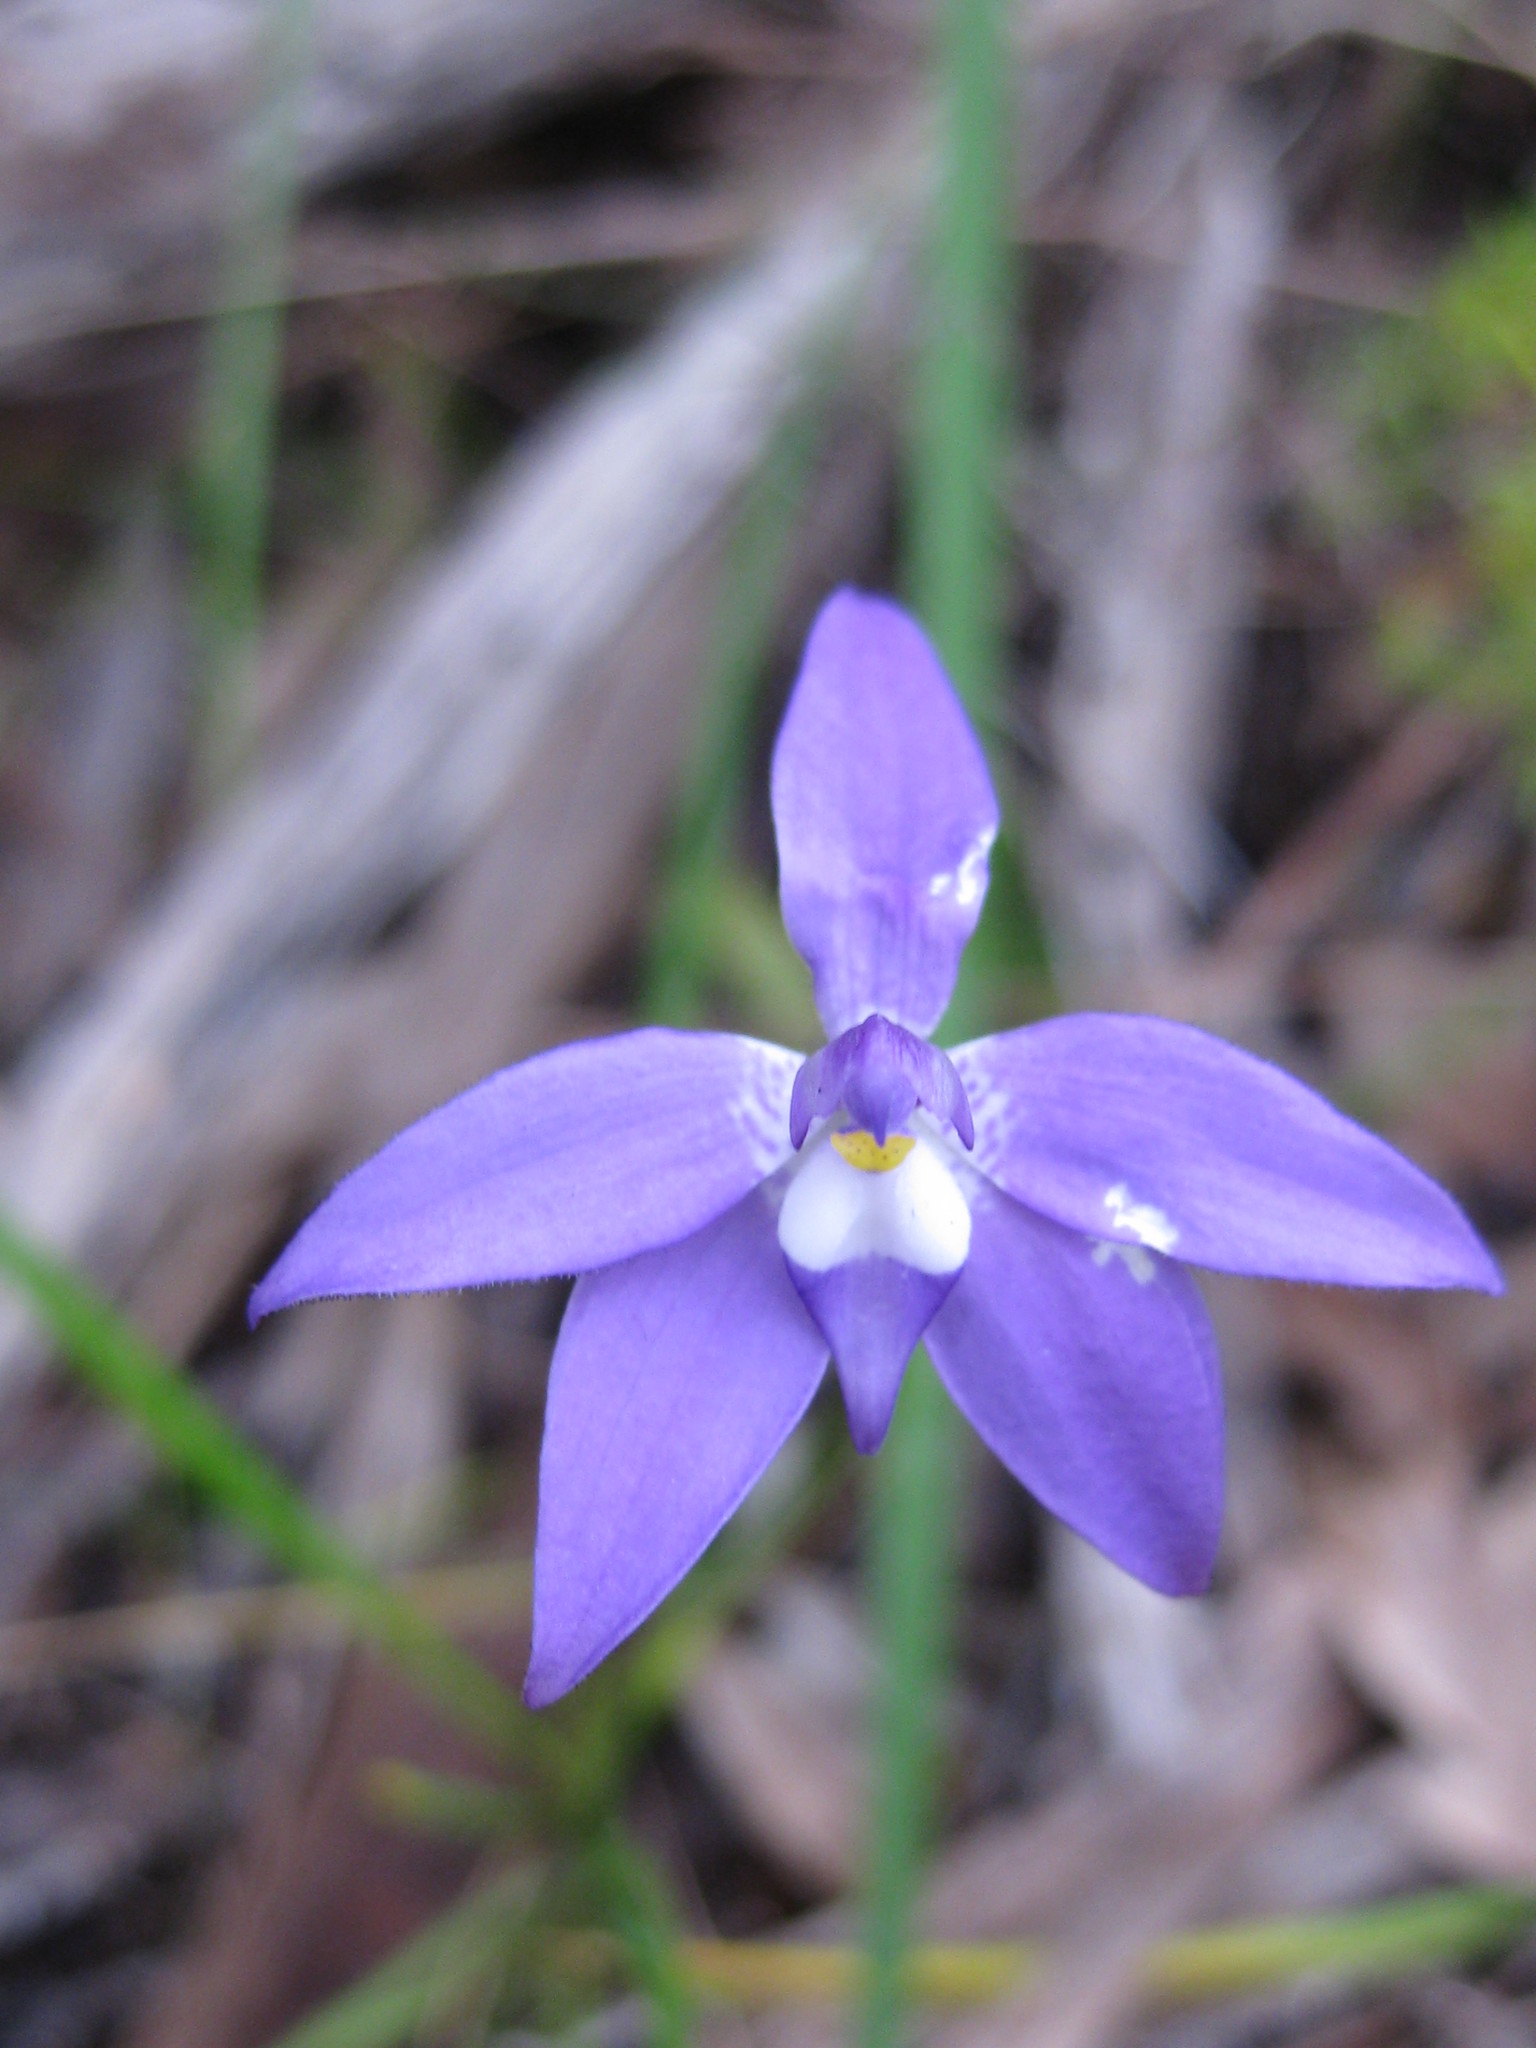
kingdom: Plantae
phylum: Tracheophyta
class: Liliopsida
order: Asparagales
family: Orchidaceae
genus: Caladenia
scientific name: Caladenia major
